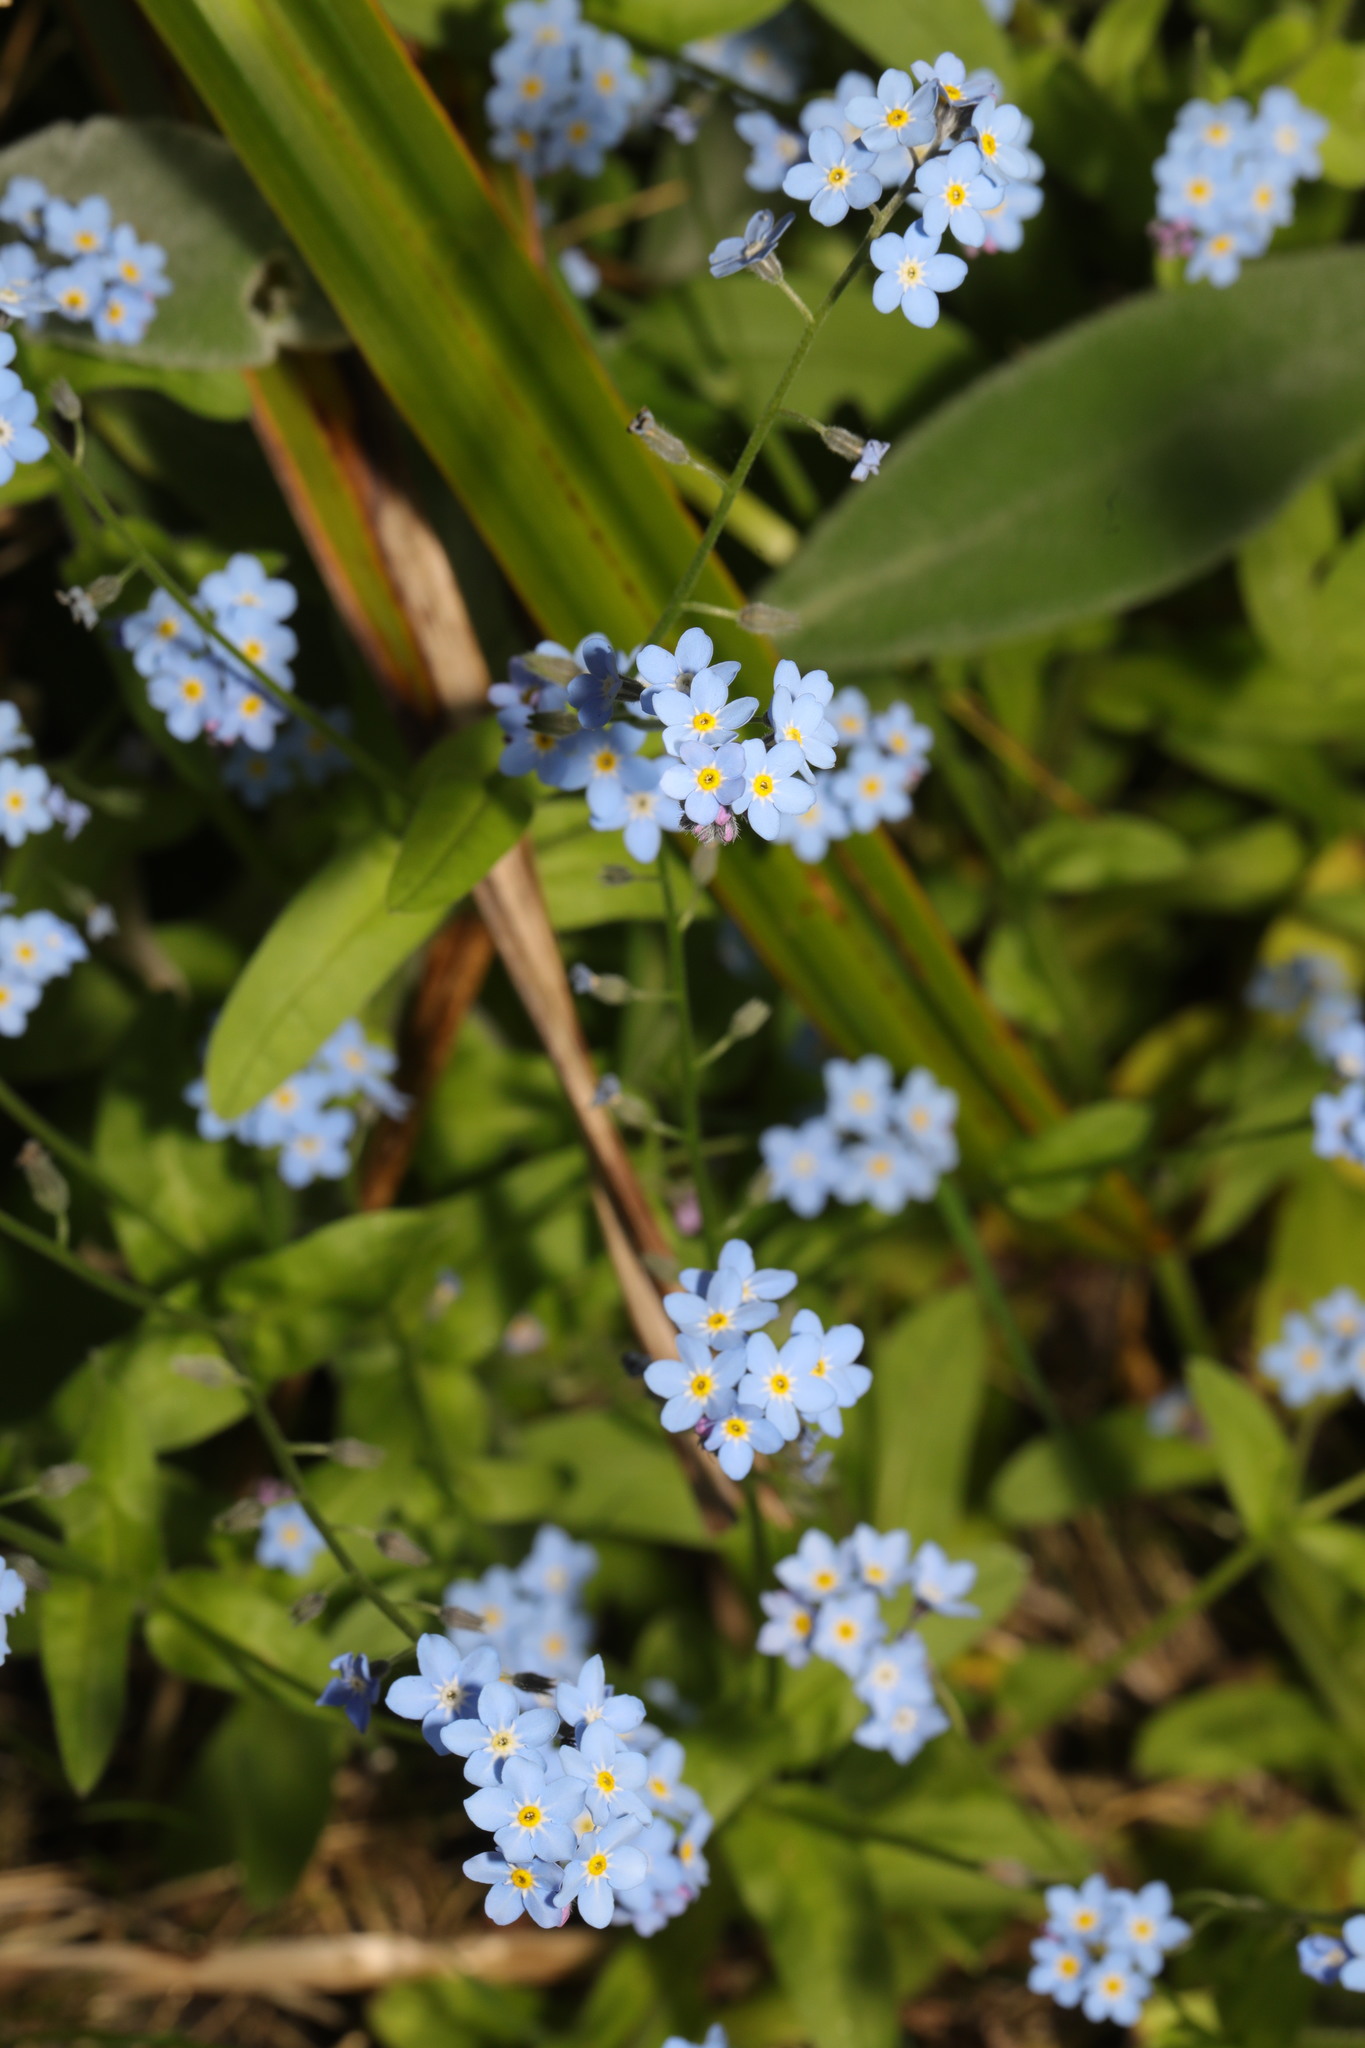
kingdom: Plantae
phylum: Tracheophyta
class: Magnoliopsida
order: Boraginales
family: Boraginaceae
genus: Myosotis
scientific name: Myosotis sylvatica
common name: Wood forget-me-not
